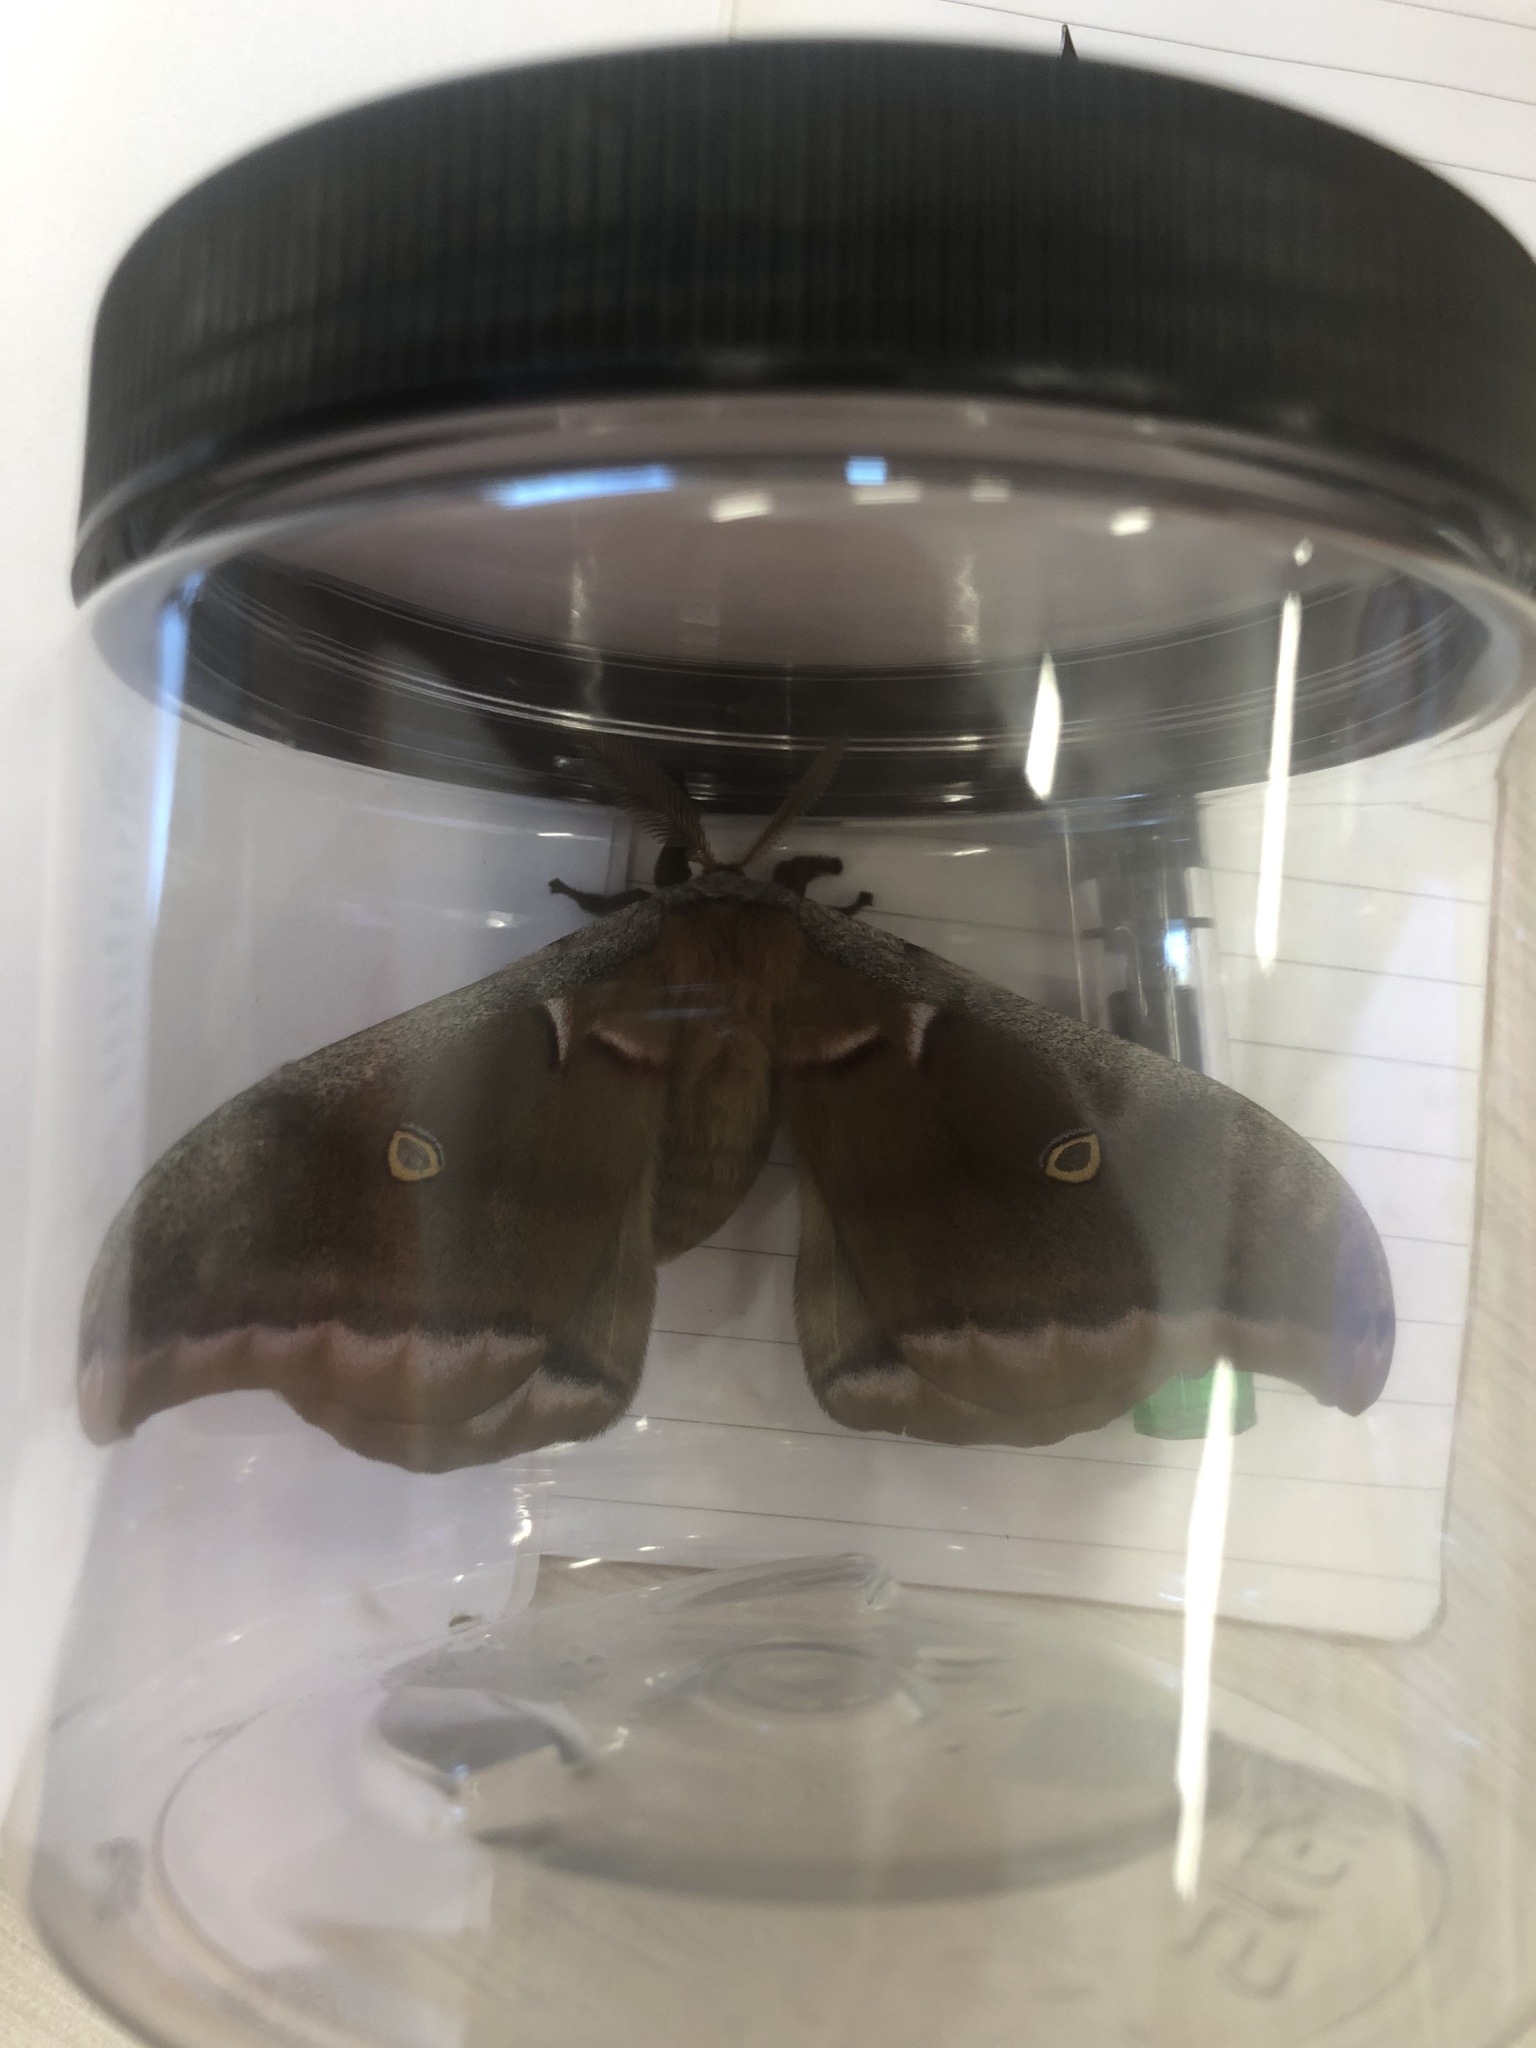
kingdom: Animalia
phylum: Arthropoda
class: Insecta
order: Lepidoptera
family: Saturniidae
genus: Antheraea
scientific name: Antheraea polyphemus
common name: Polyphemus moth
